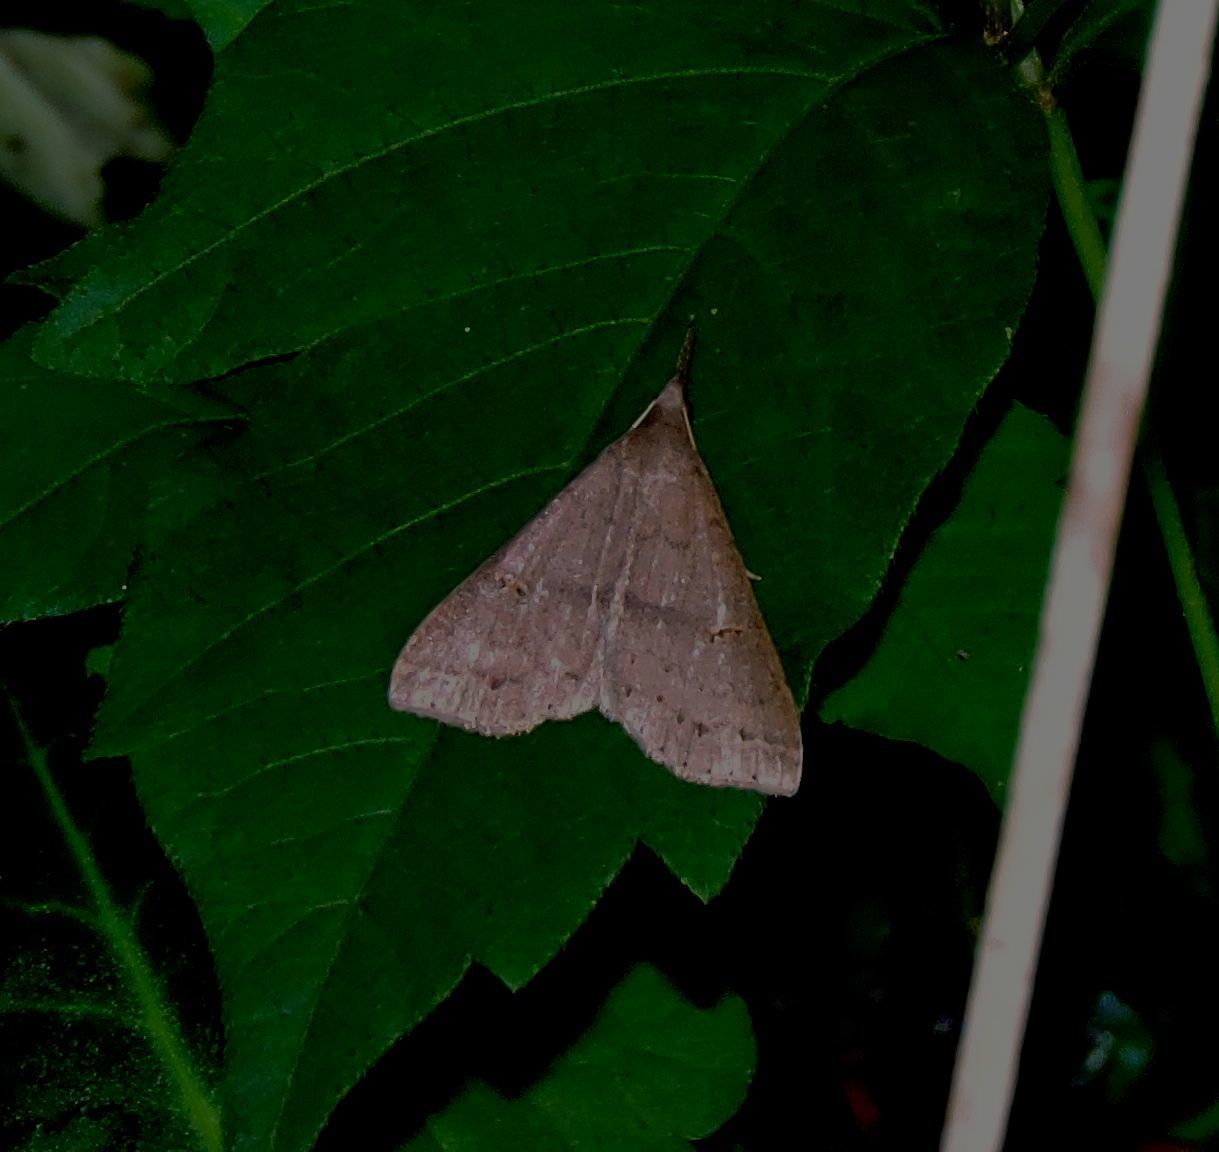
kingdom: Animalia
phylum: Arthropoda
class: Insecta
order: Lepidoptera
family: Erebidae
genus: Renia
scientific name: Renia adspergillus
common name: Speckled renia moth
